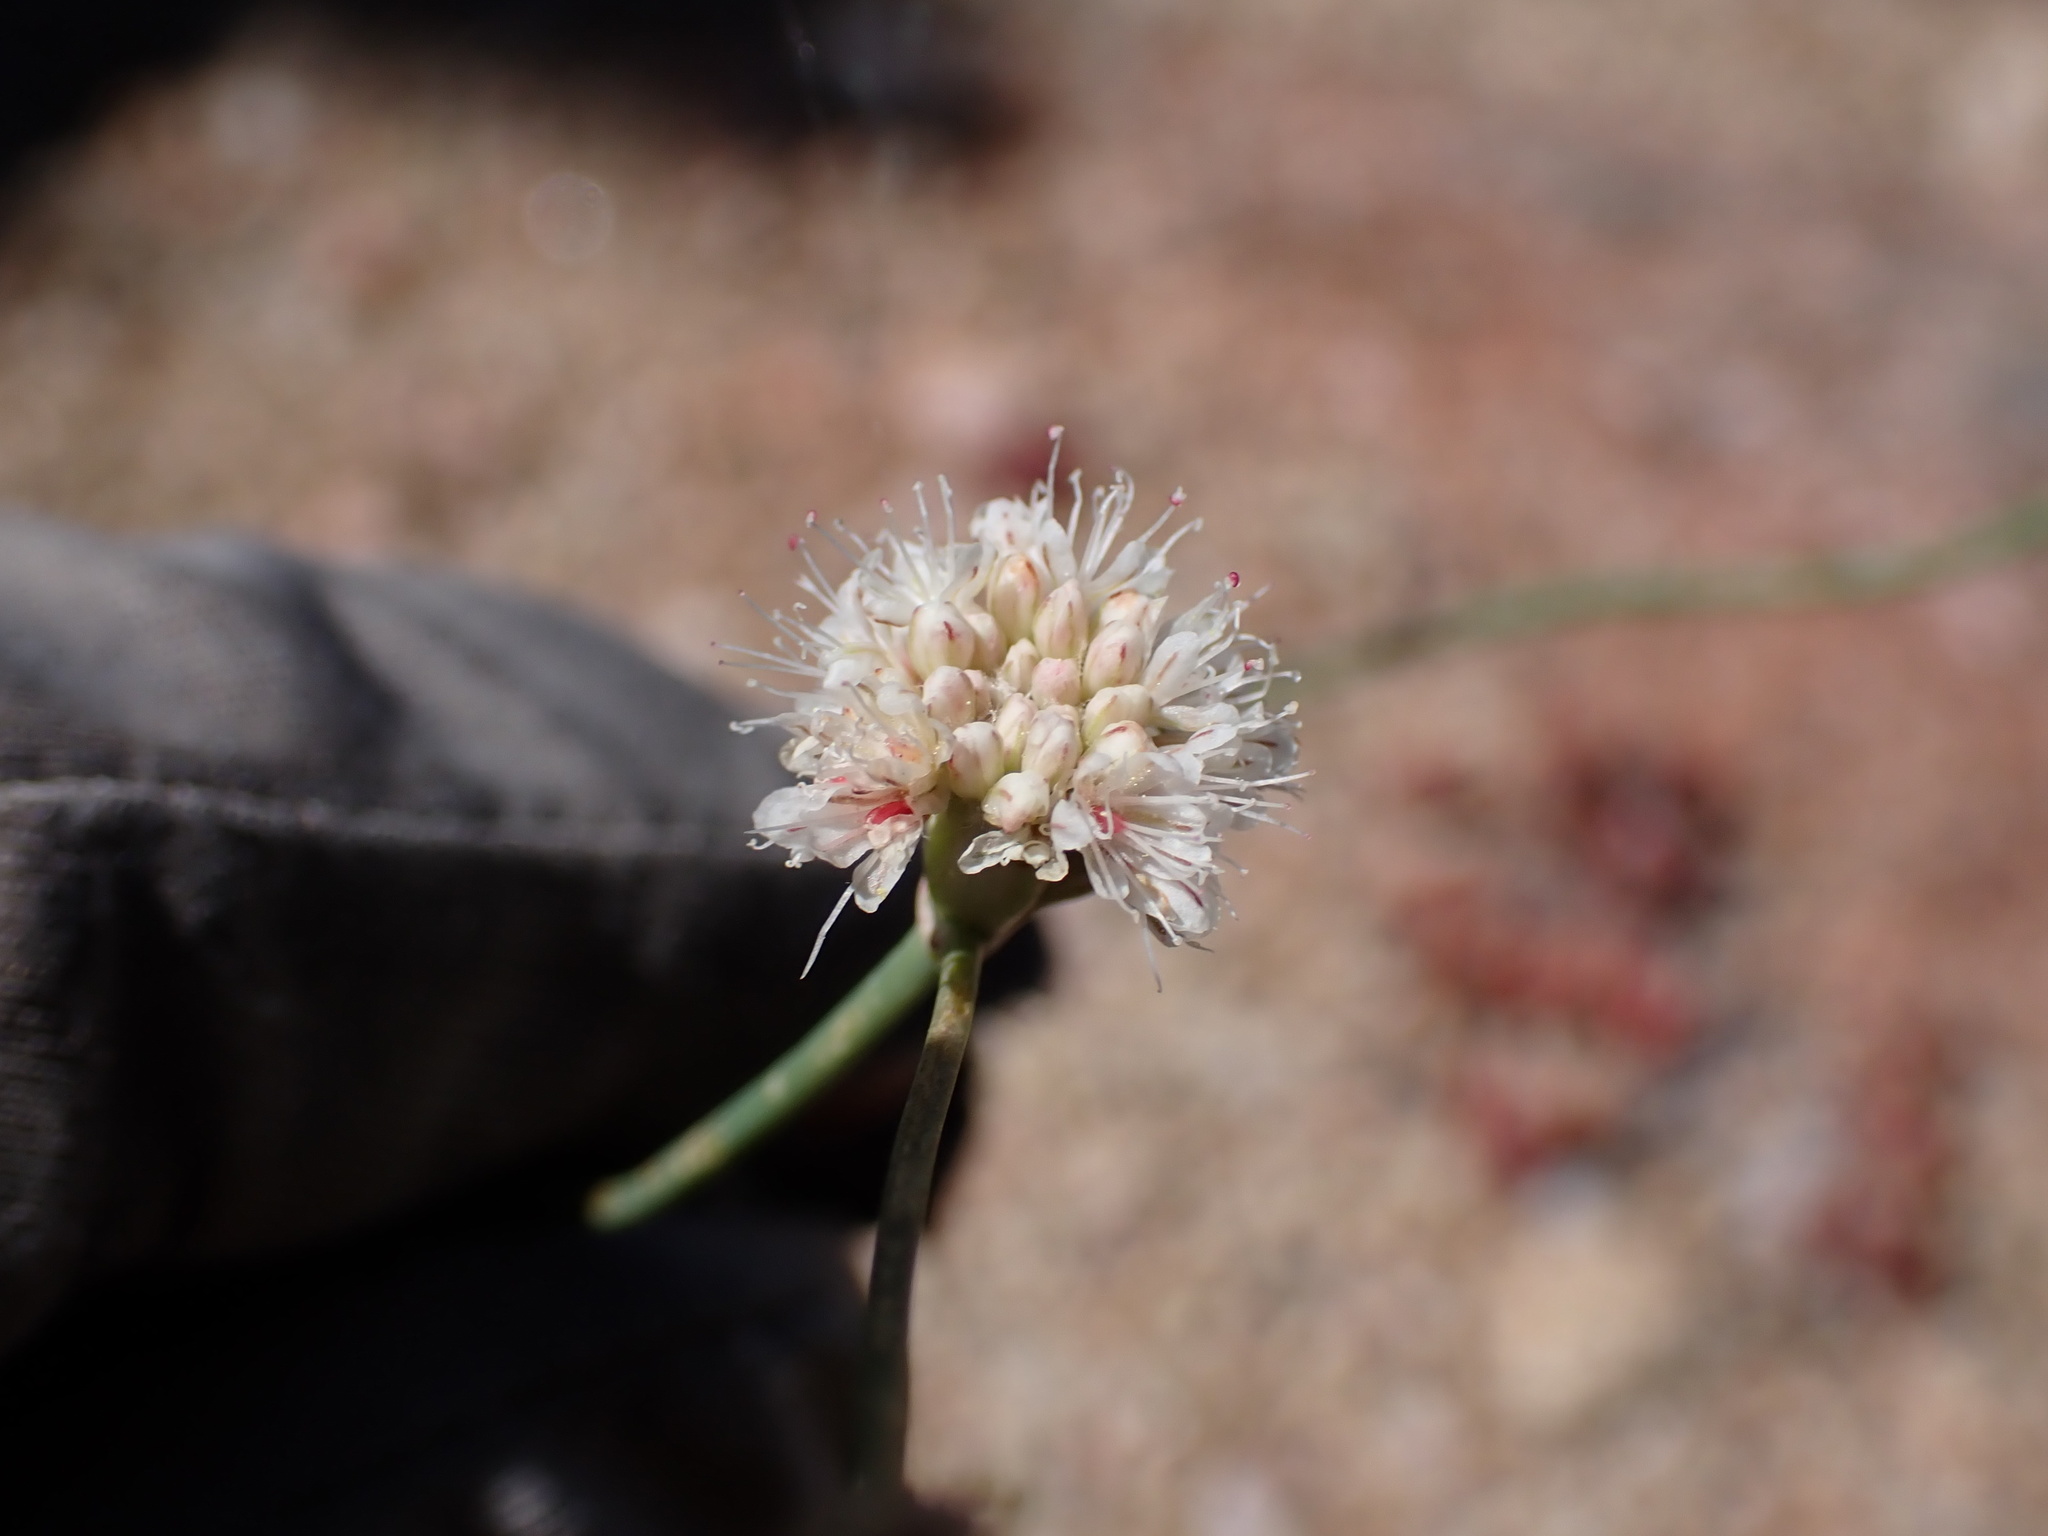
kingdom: Plantae
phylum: Tracheophyta
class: Magnoliopsida
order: Caryophyllales
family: Polygonaceae
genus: Eriogonum
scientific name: Eriogonum nudum
